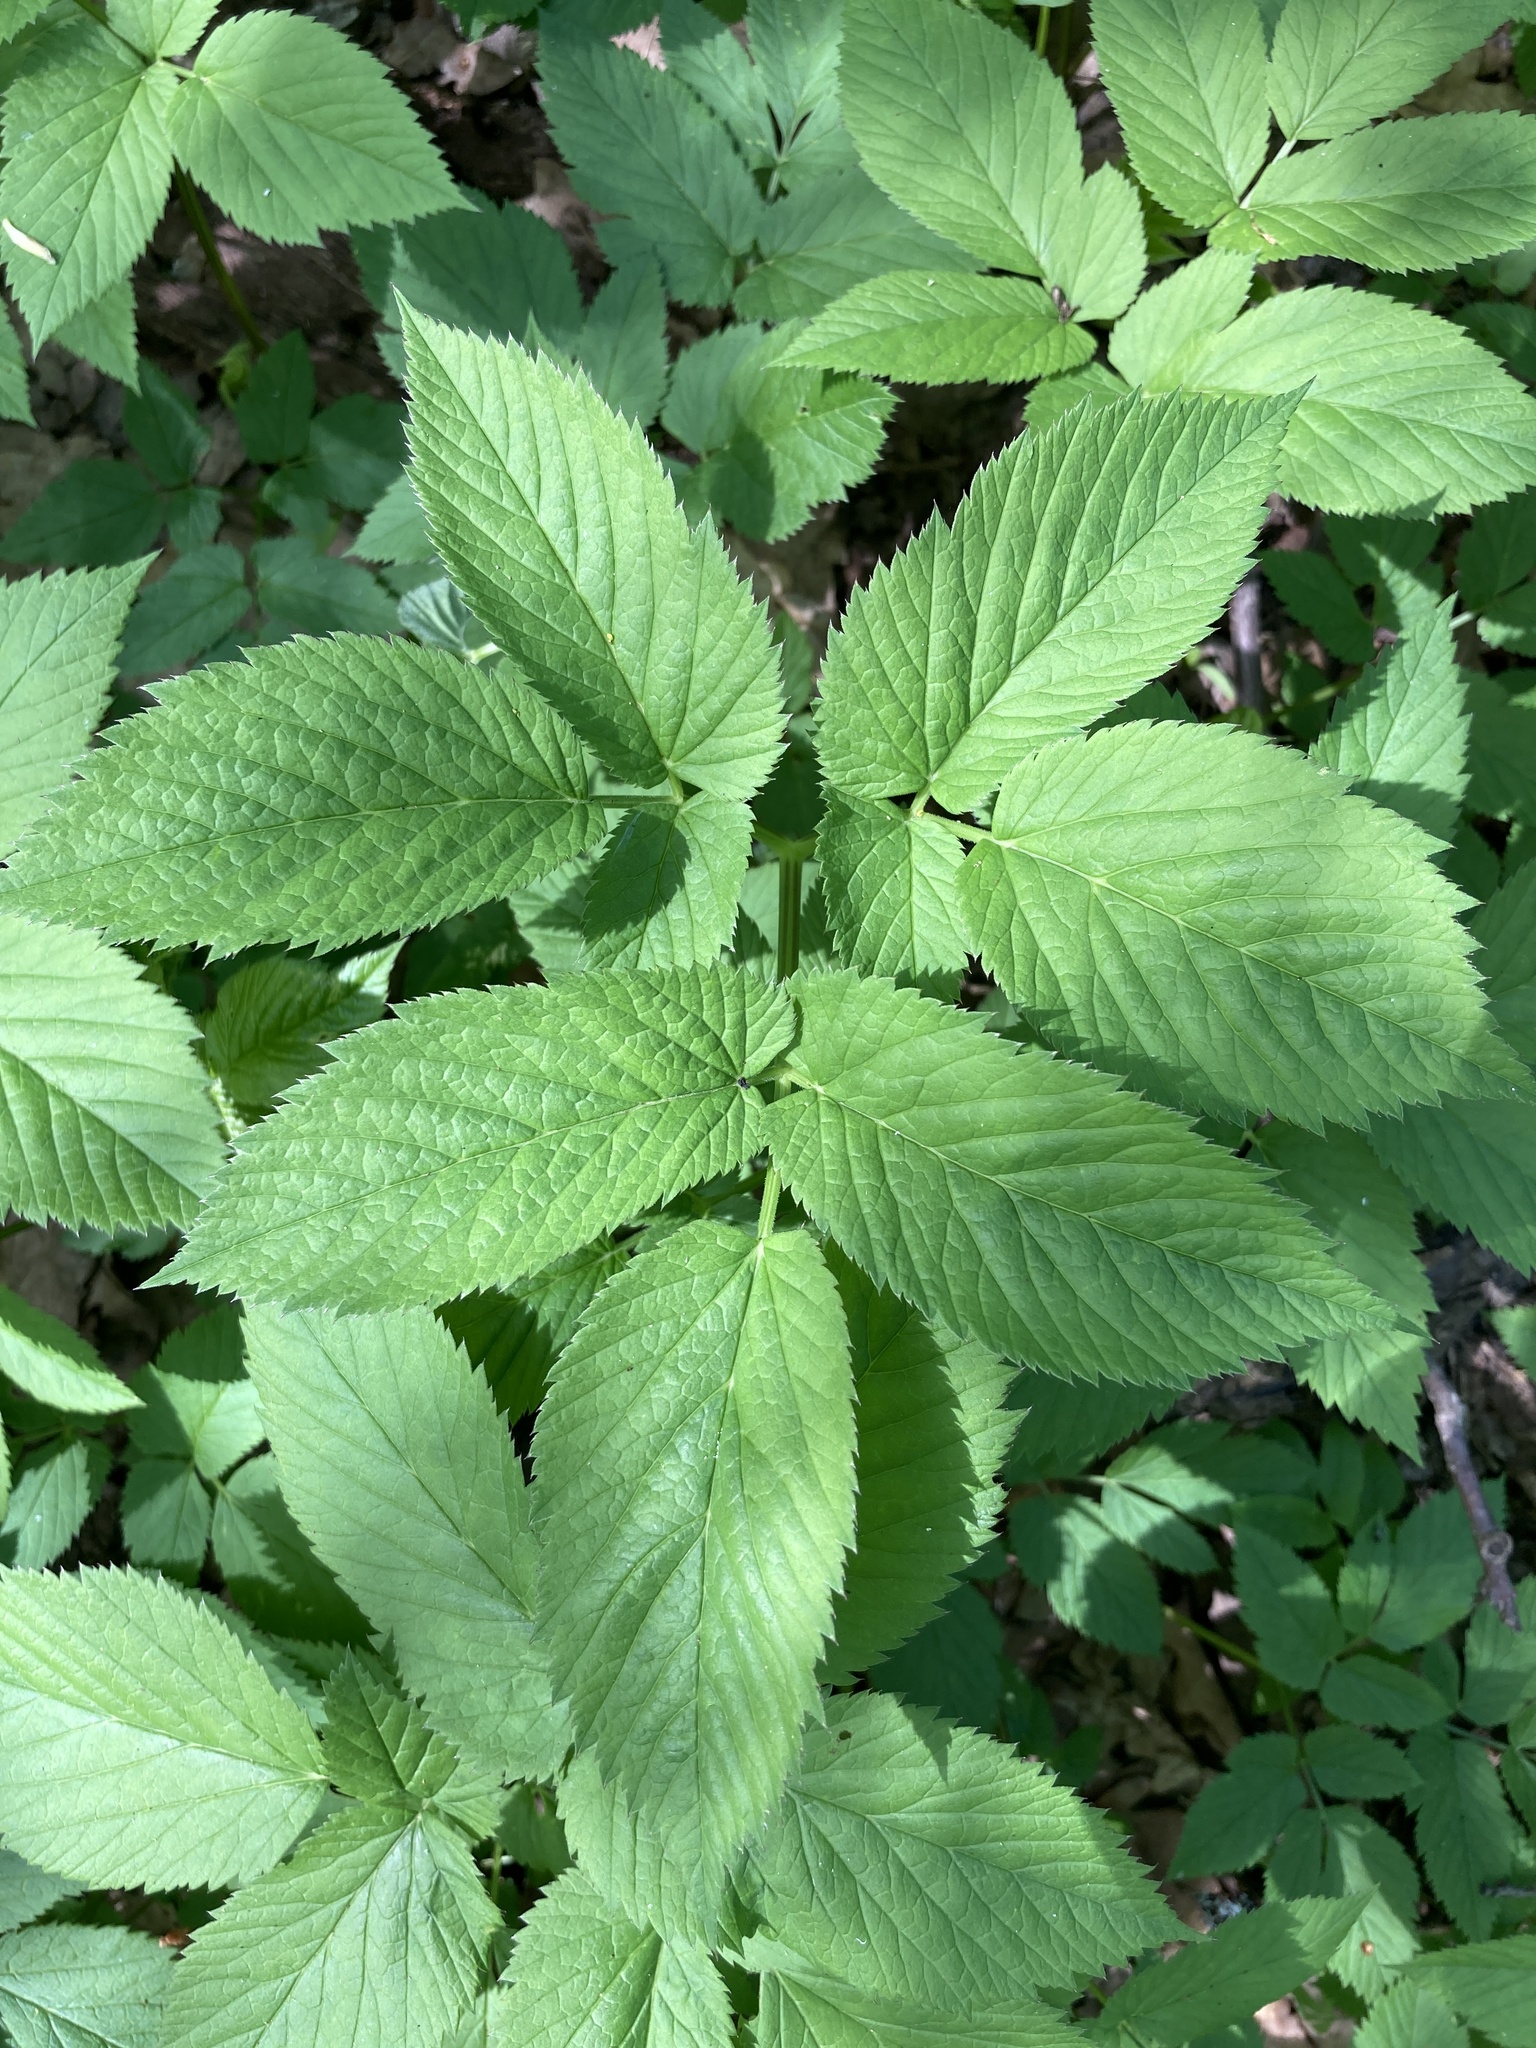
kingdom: Plantae
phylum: Tracheophyta
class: Magnoliopsida
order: Apiales
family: Apiaceae
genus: Aegopodium
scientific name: Aegopodium podagraria
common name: Ground-elder
